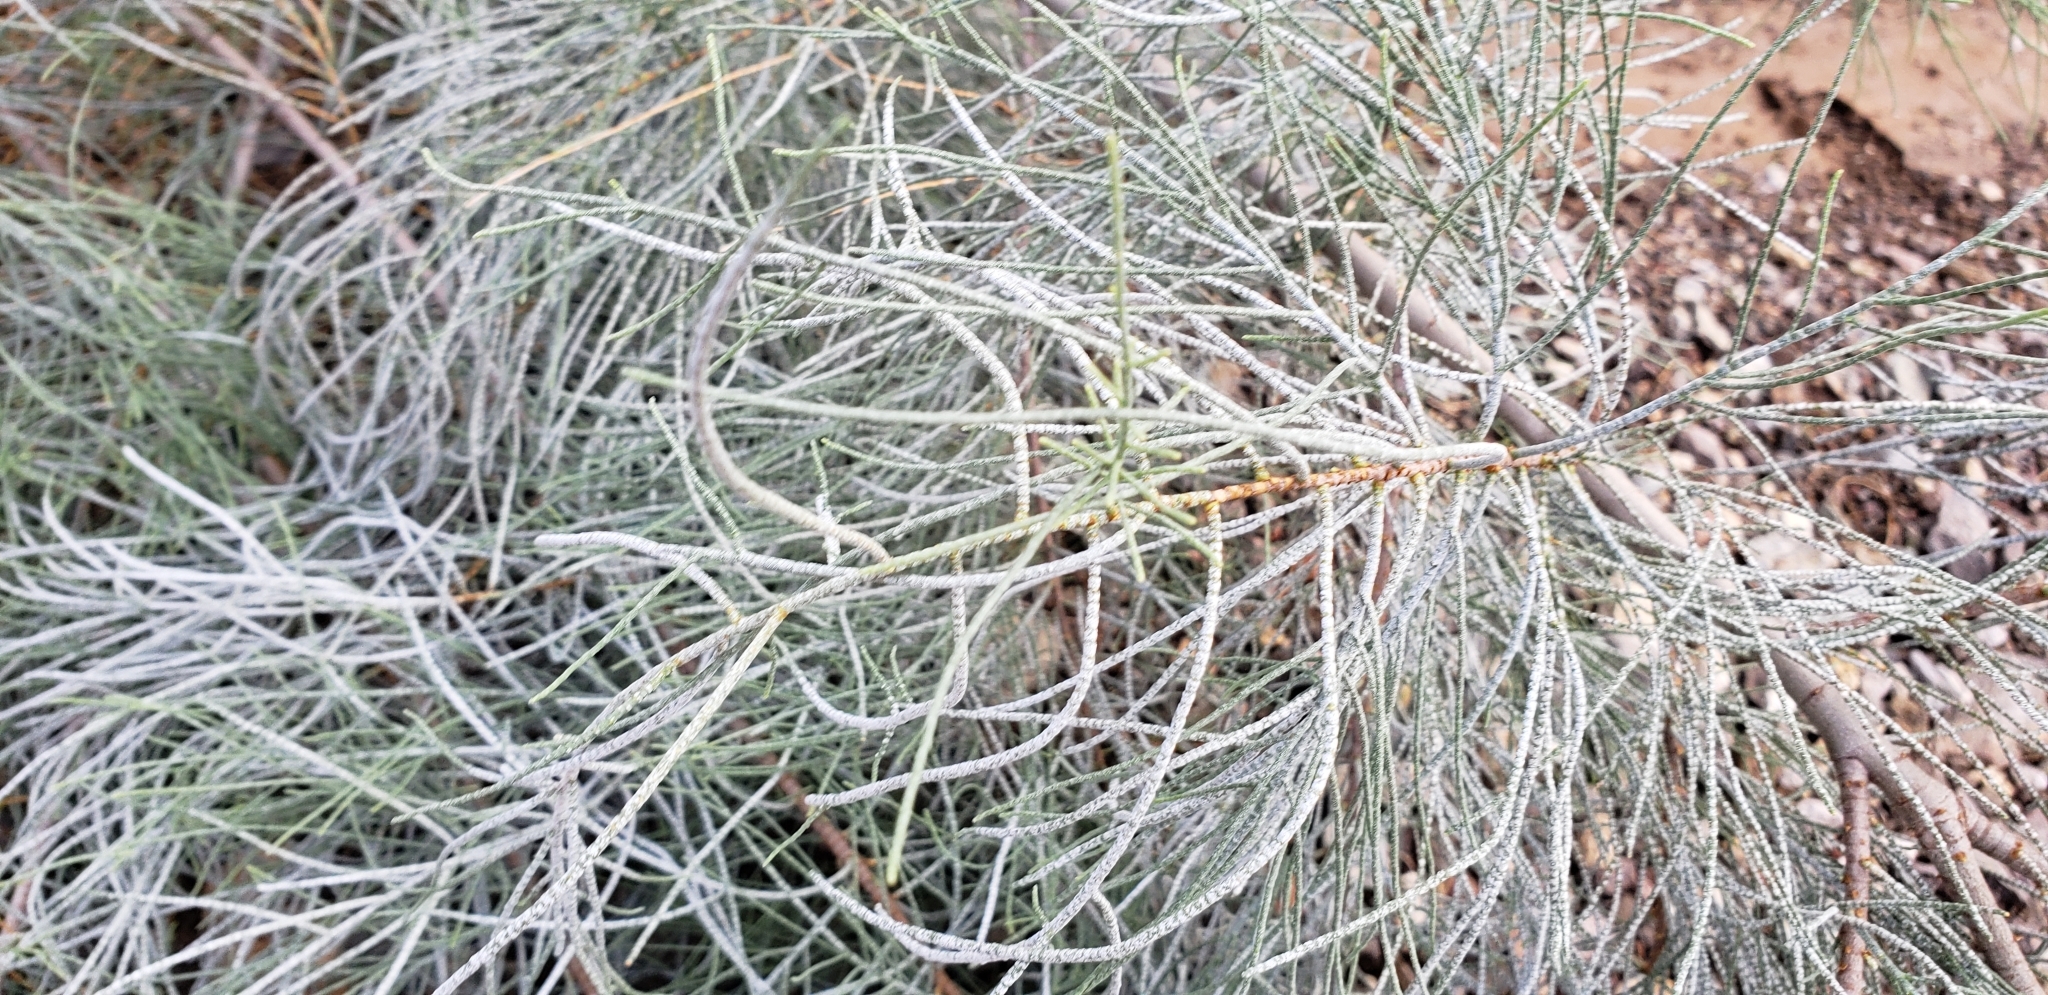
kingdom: Plantae
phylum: Tracheophyta
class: Magnoliopsida
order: Caryophyllales
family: Tamaricaceae
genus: Tamarix
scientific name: Tamarix aphylla
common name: Athel tamarisk
